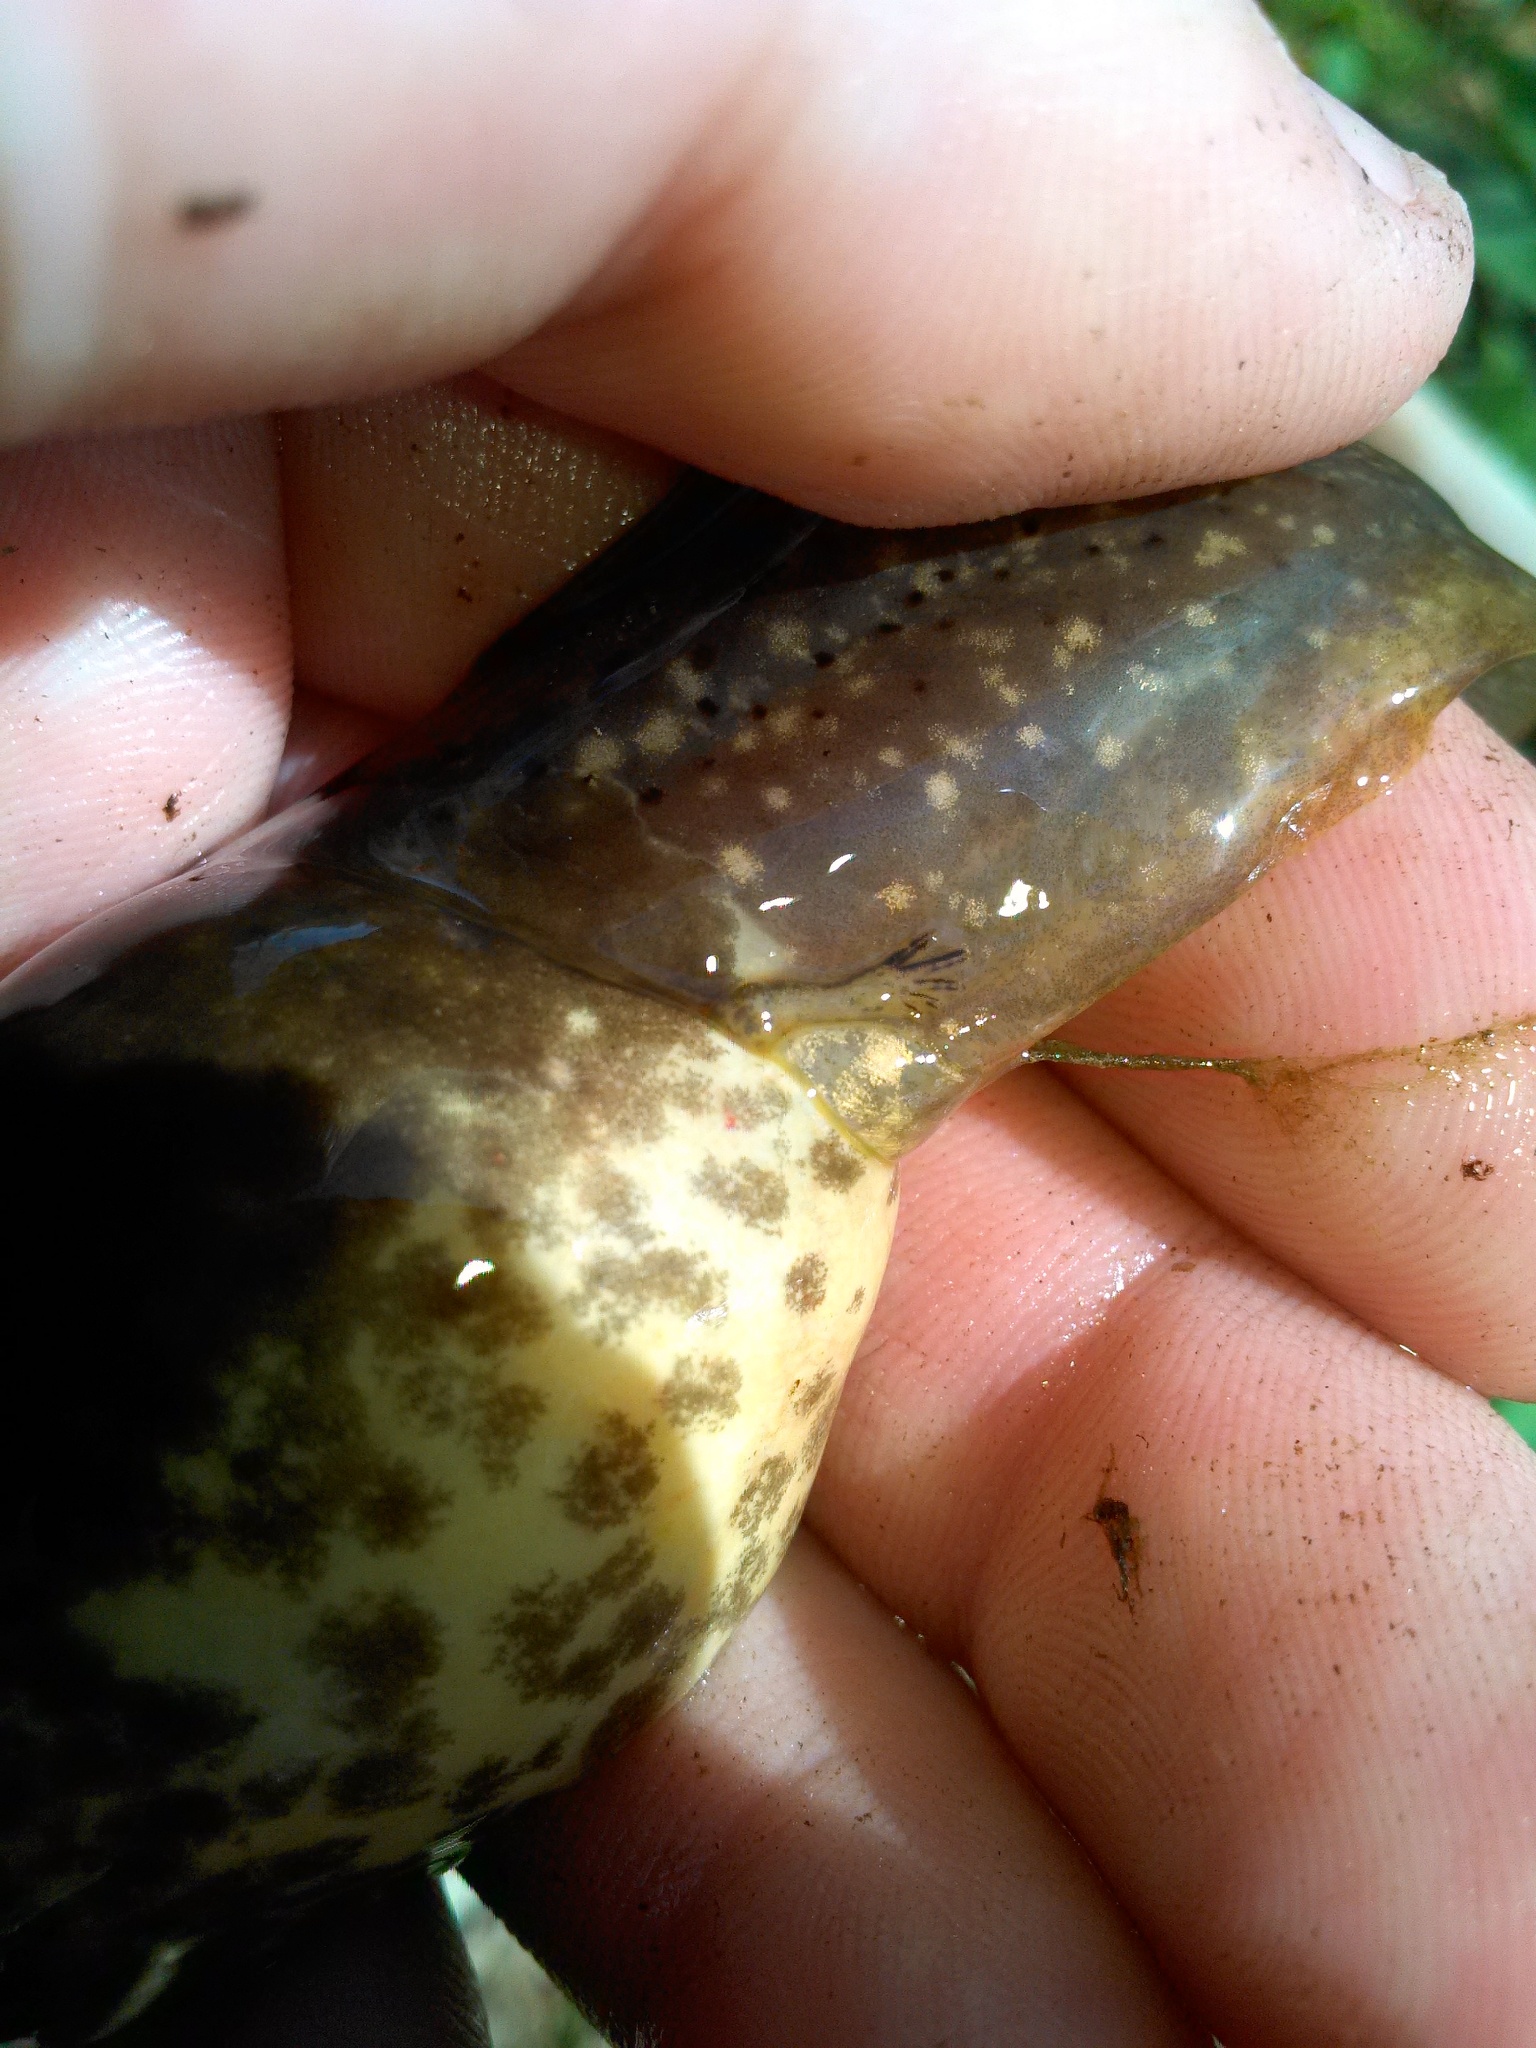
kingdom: Animalia
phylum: Chordata
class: Amphibia
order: Anura
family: Ranidae
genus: Lithobates
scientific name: Lithobates catesbeianus
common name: American bullfrog
